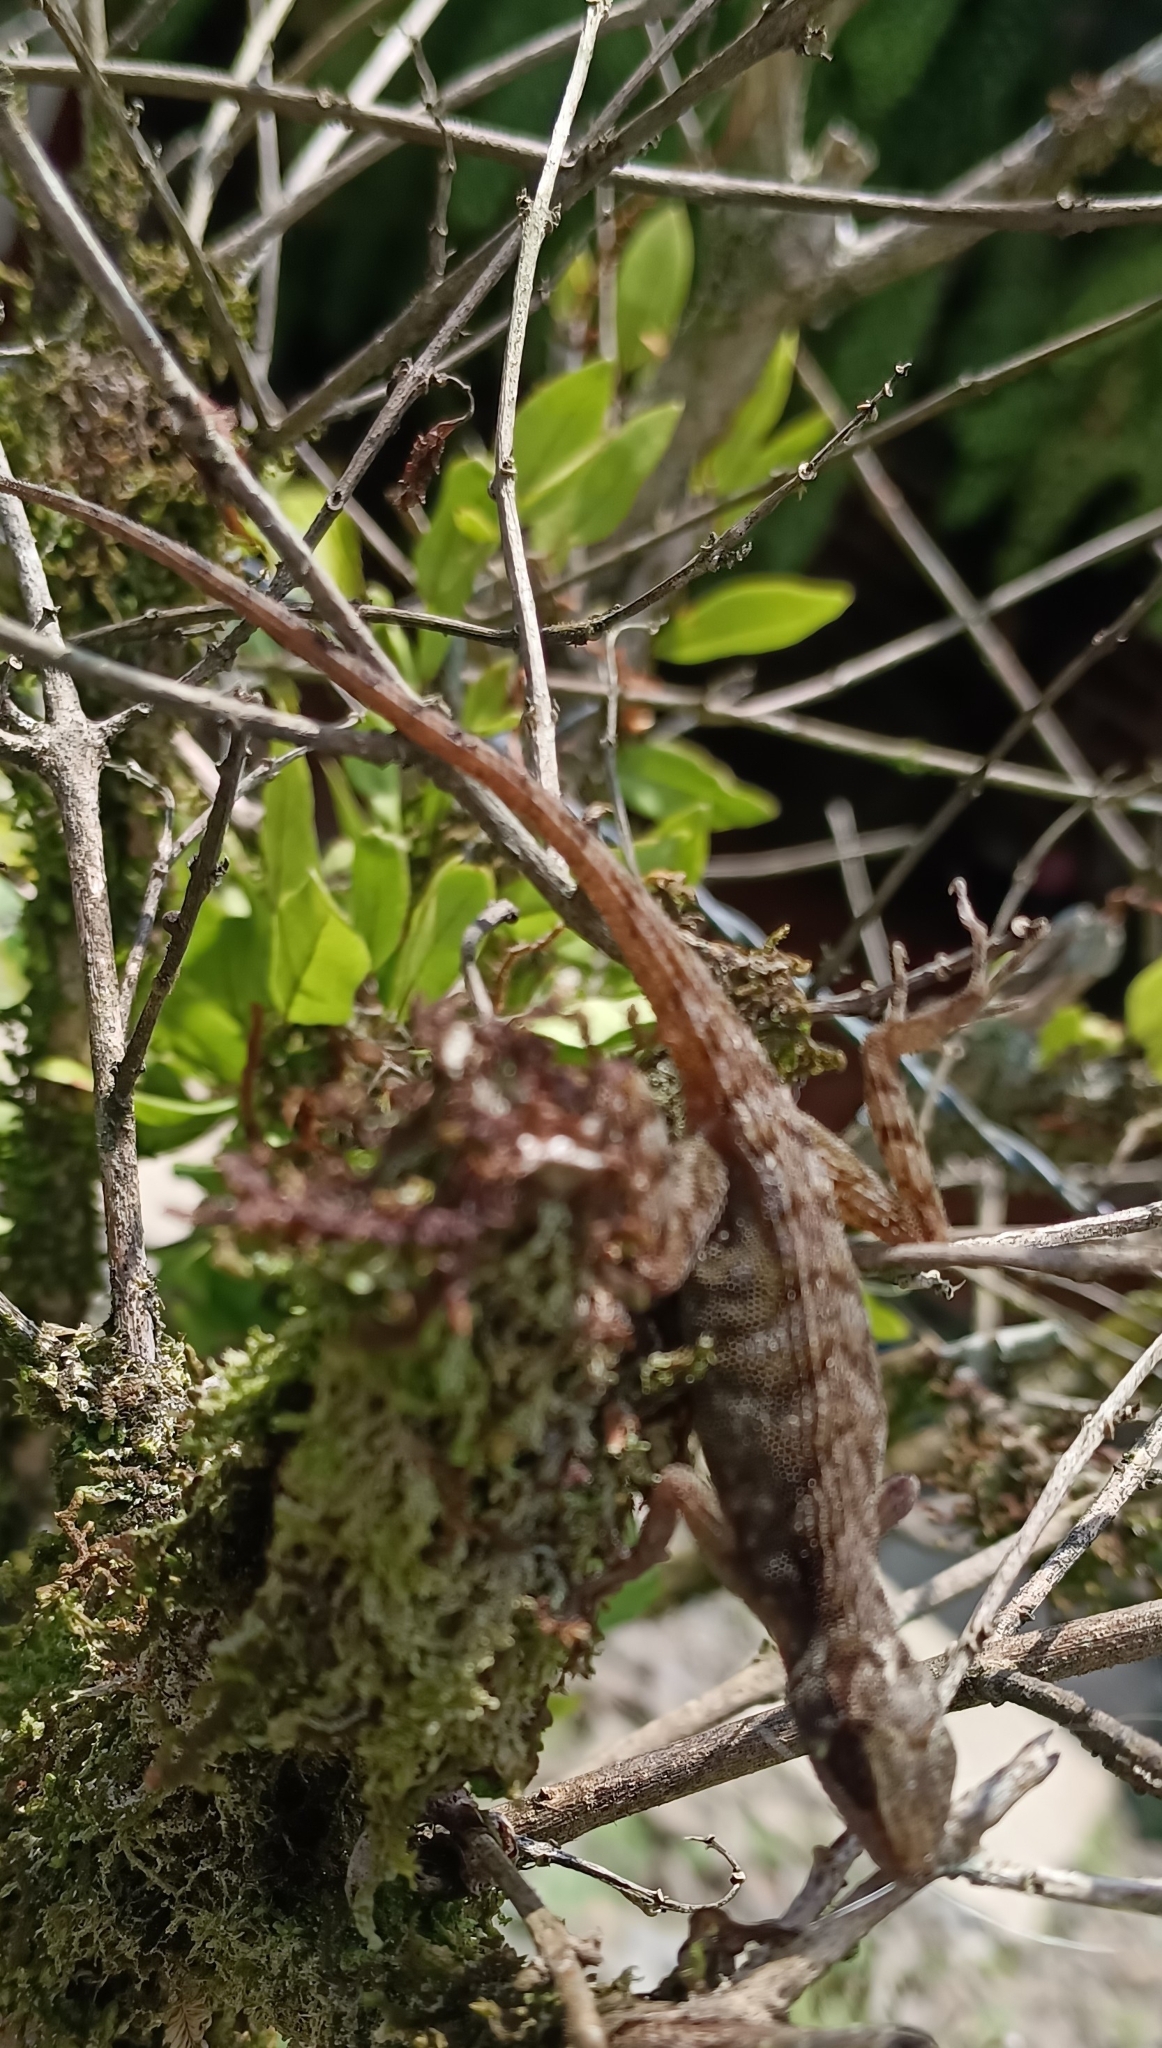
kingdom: Animalia
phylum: Chordata
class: Squamata
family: Dactyloidae
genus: Anolis
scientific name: Anolis notopholis
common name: Scalyback anole
